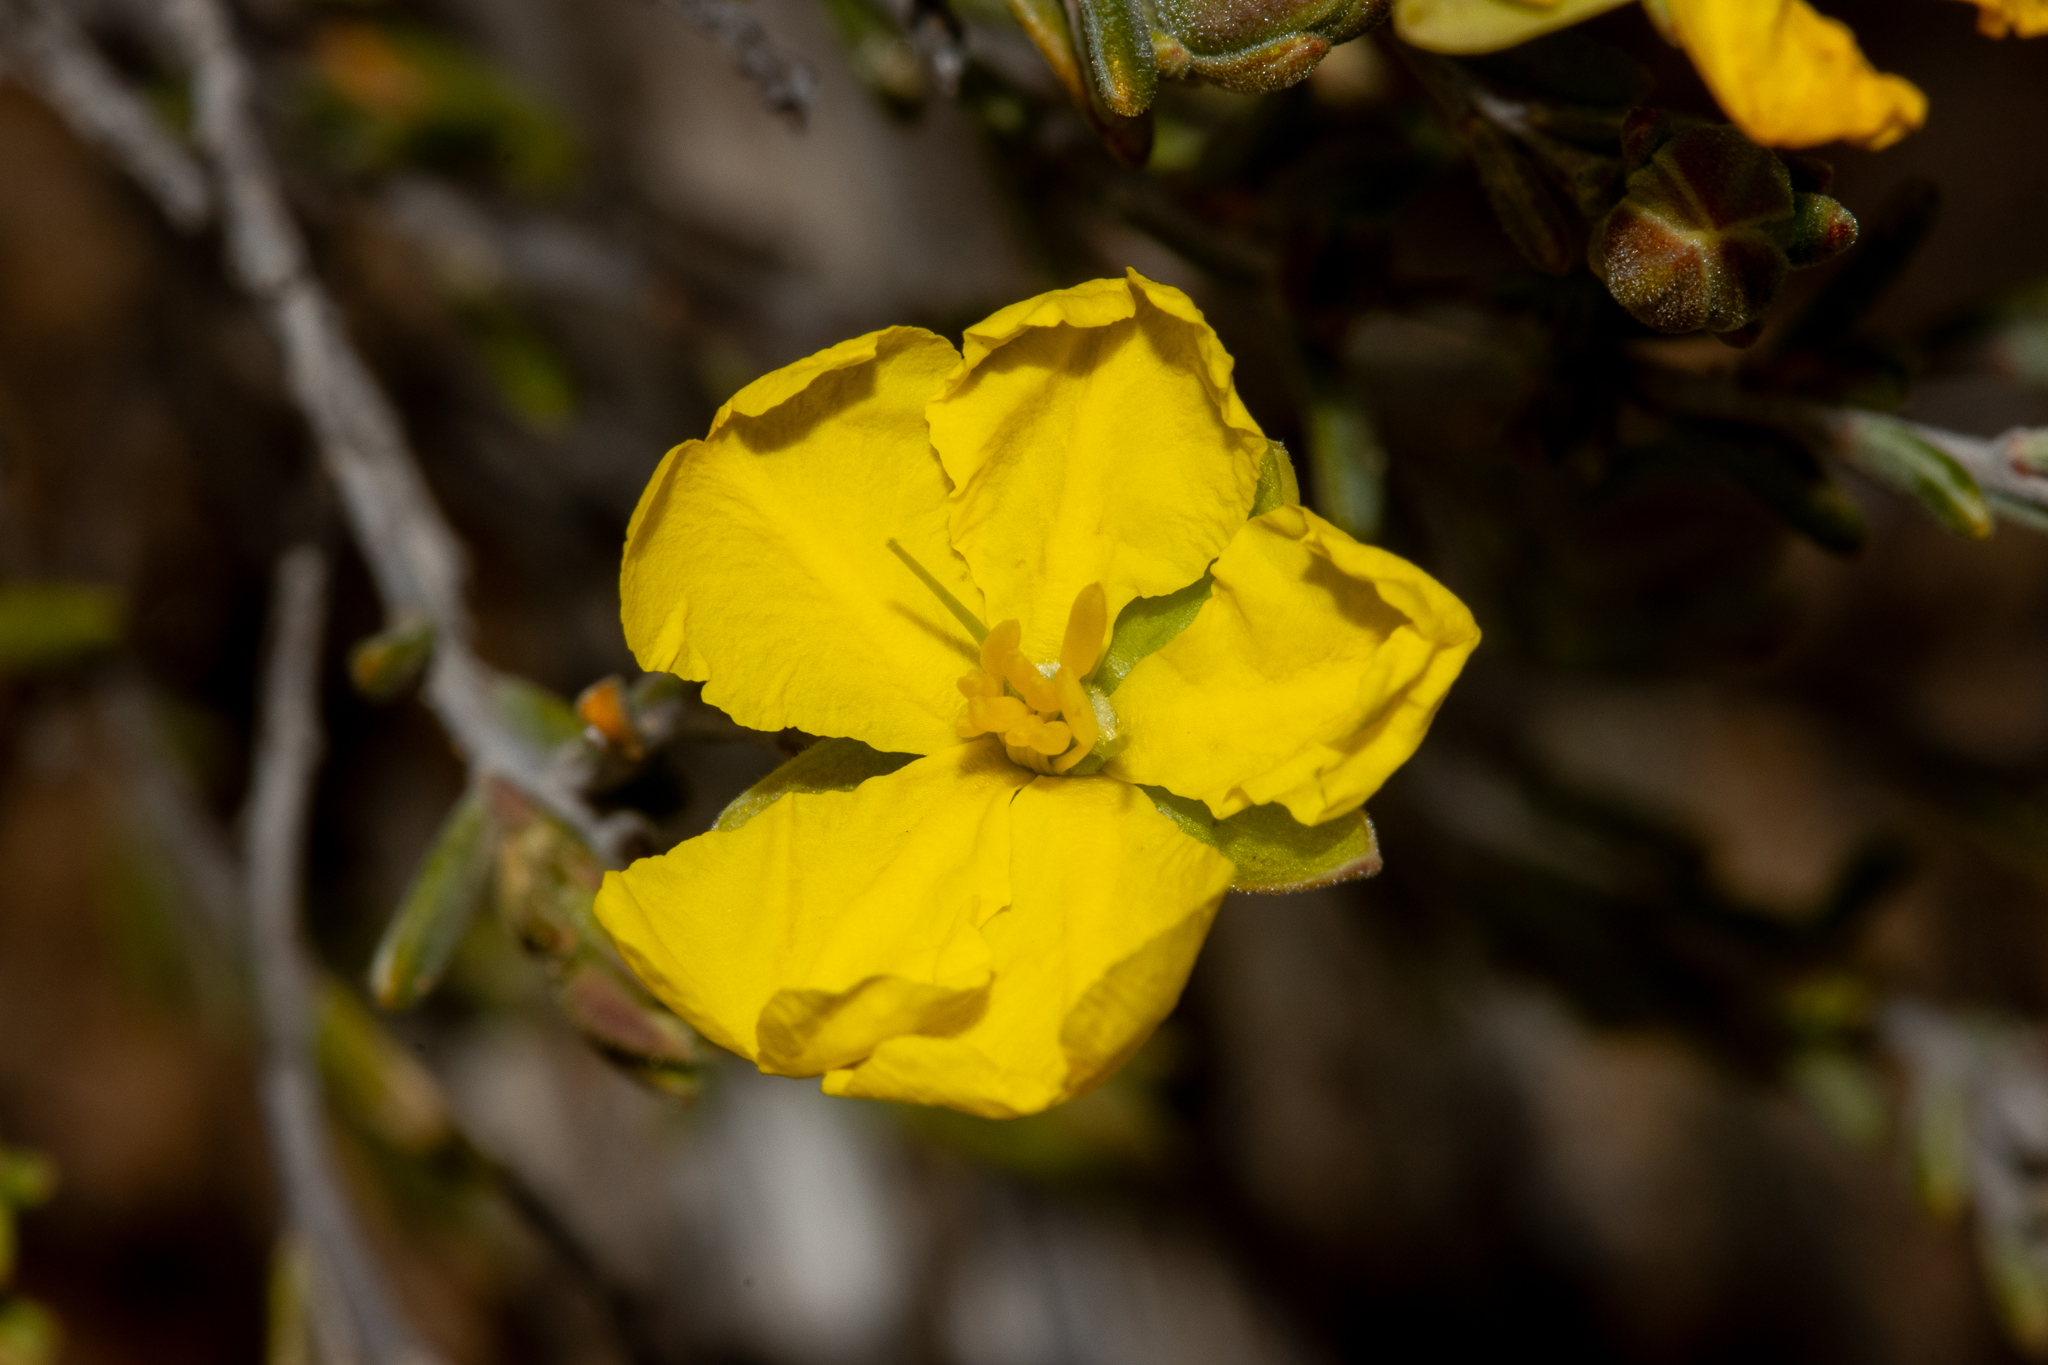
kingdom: Plantae
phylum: Tracheophyta
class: Magnoliopsida
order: Dilleniales
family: Dilleniaceae
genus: Hibbertia
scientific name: Hibbertia devitata
